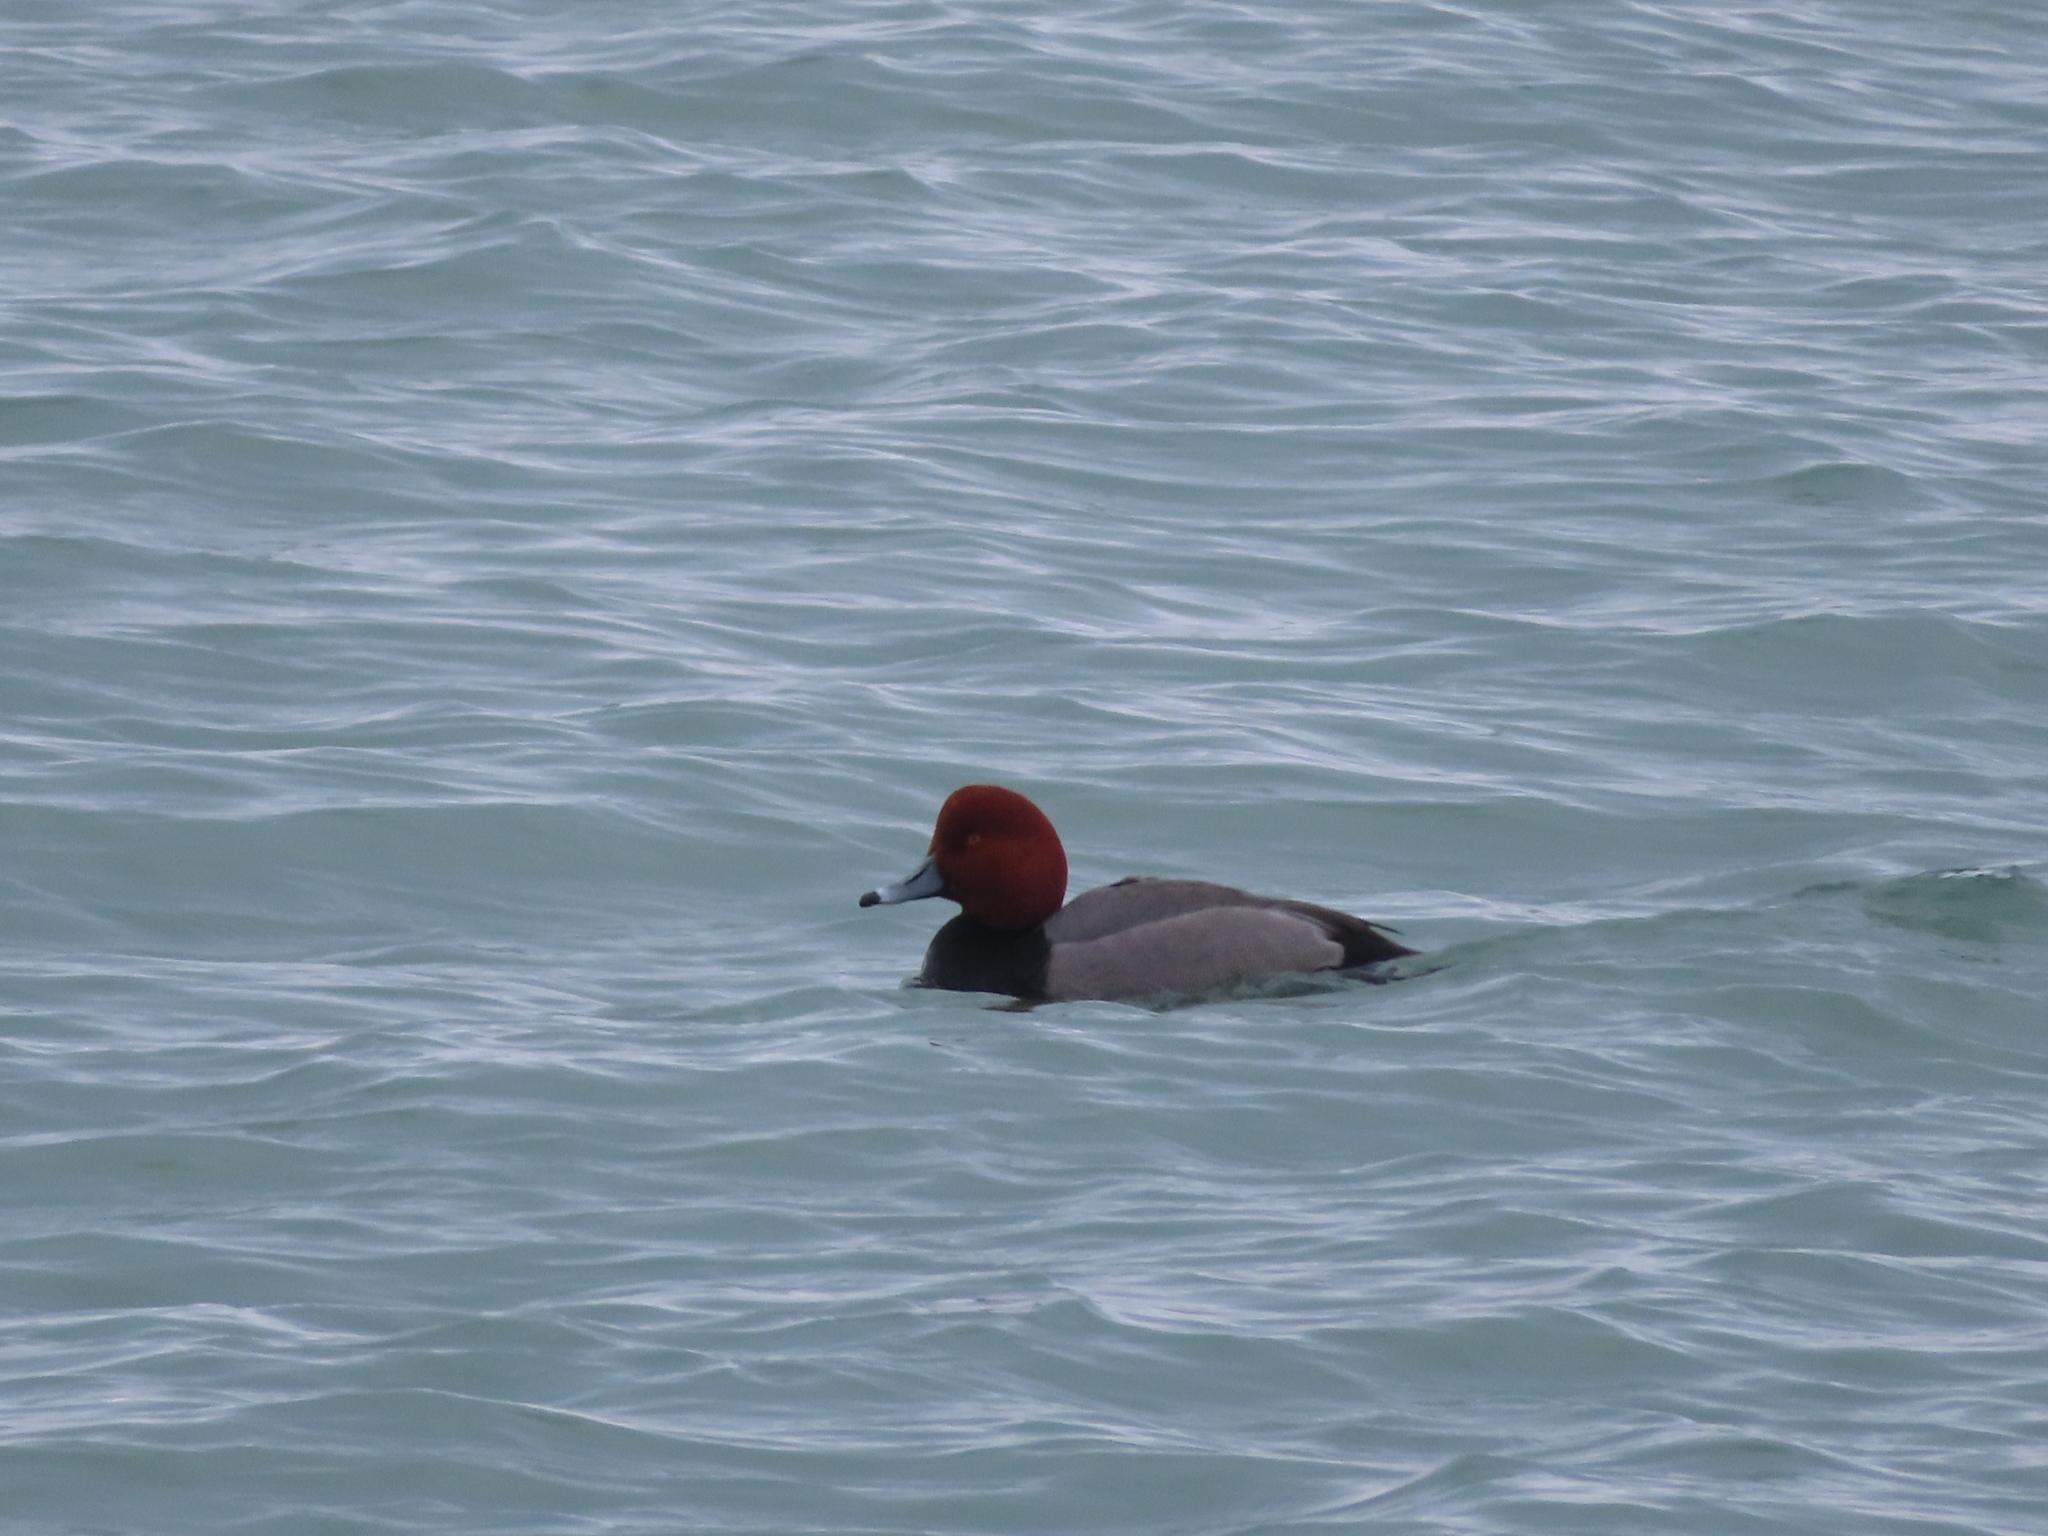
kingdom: Animalia
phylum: Chordata
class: Aves
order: Anseriformes
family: Anatidae
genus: Aythya
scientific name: Aythya americana
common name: Redhead
